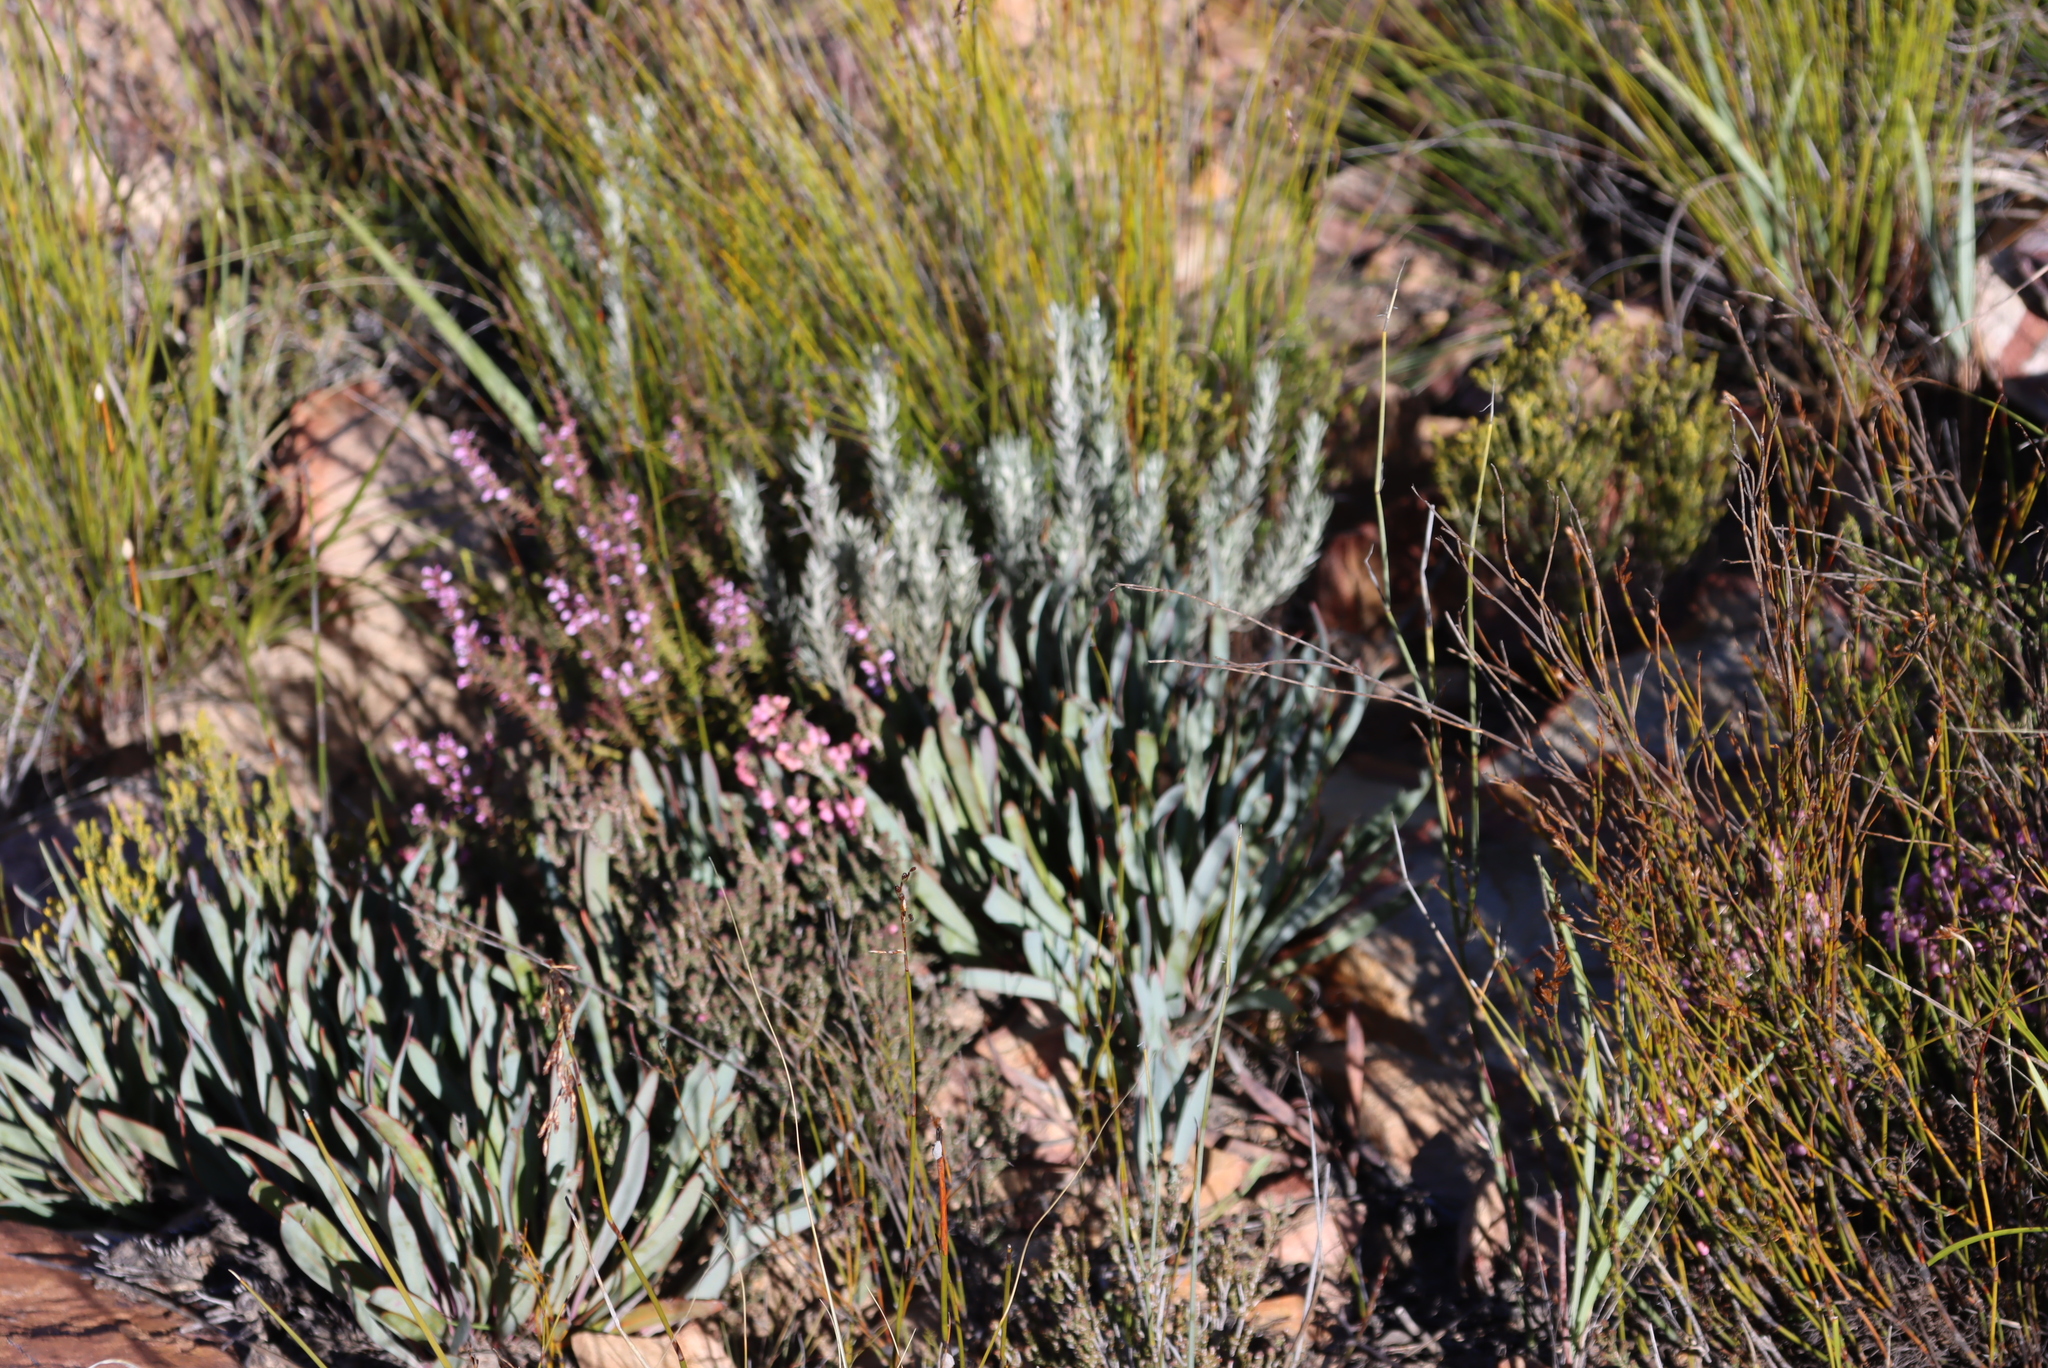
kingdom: Plantae
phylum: Tracheophyta
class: Magnoliopsida
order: Proteales
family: Proteaceae
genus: Protea
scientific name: Protea vogtsiae
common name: Kouga sugarbush
